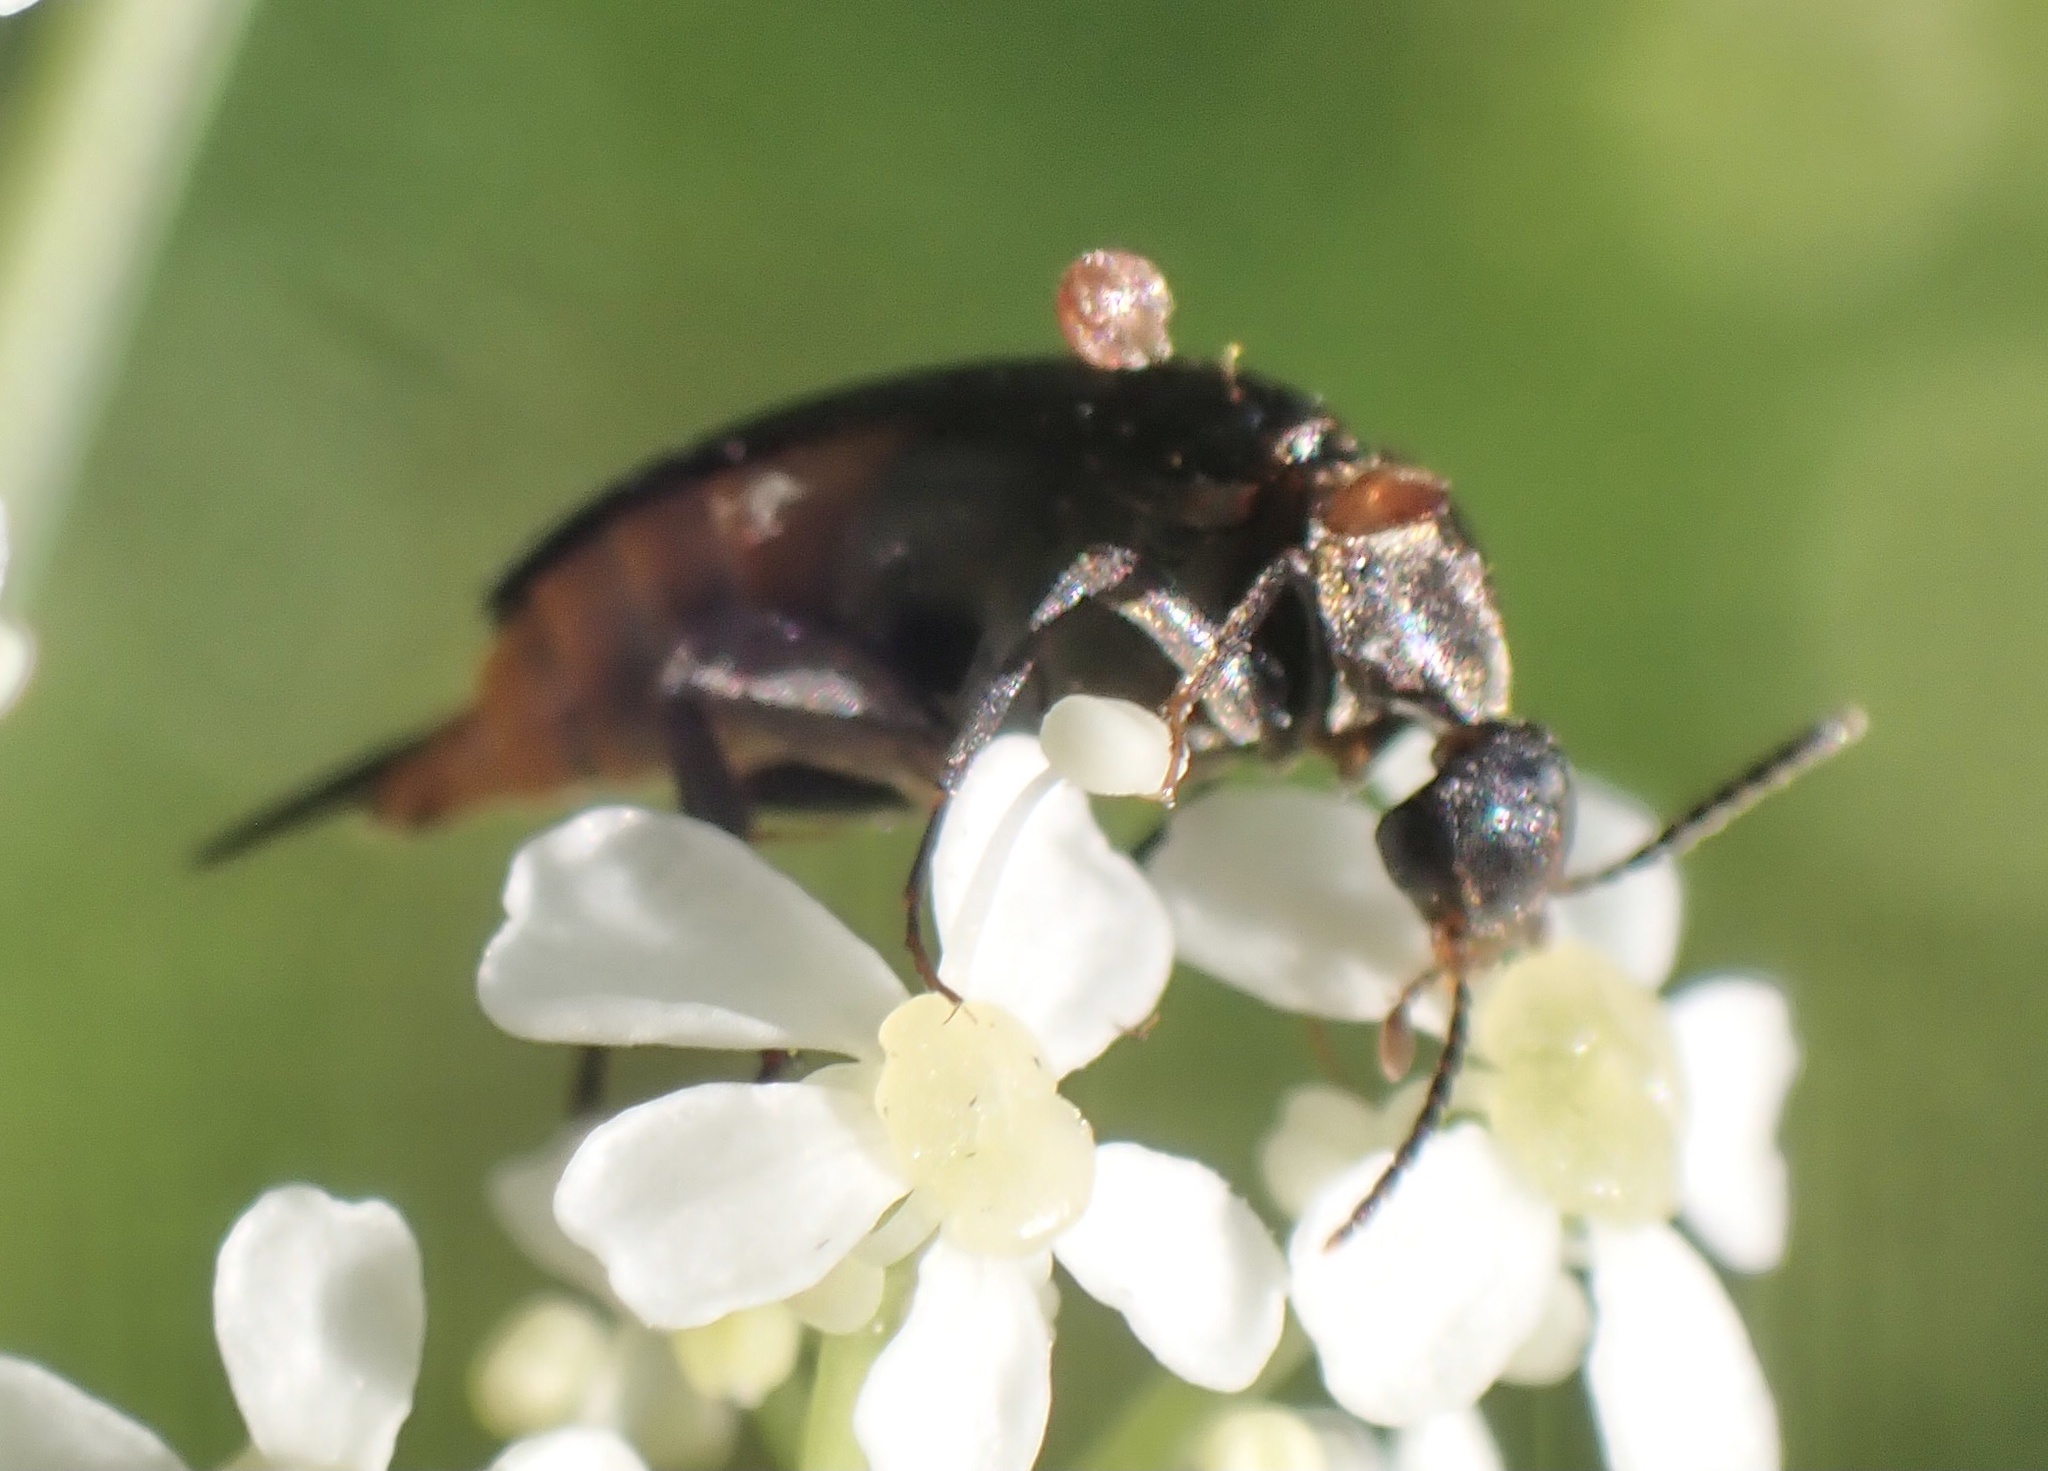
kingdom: Animalia
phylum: Arthropoda
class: Insecta
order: Coleoptera
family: Mordellidae
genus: Mordellochroa
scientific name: Mordellochroa abdominalis
